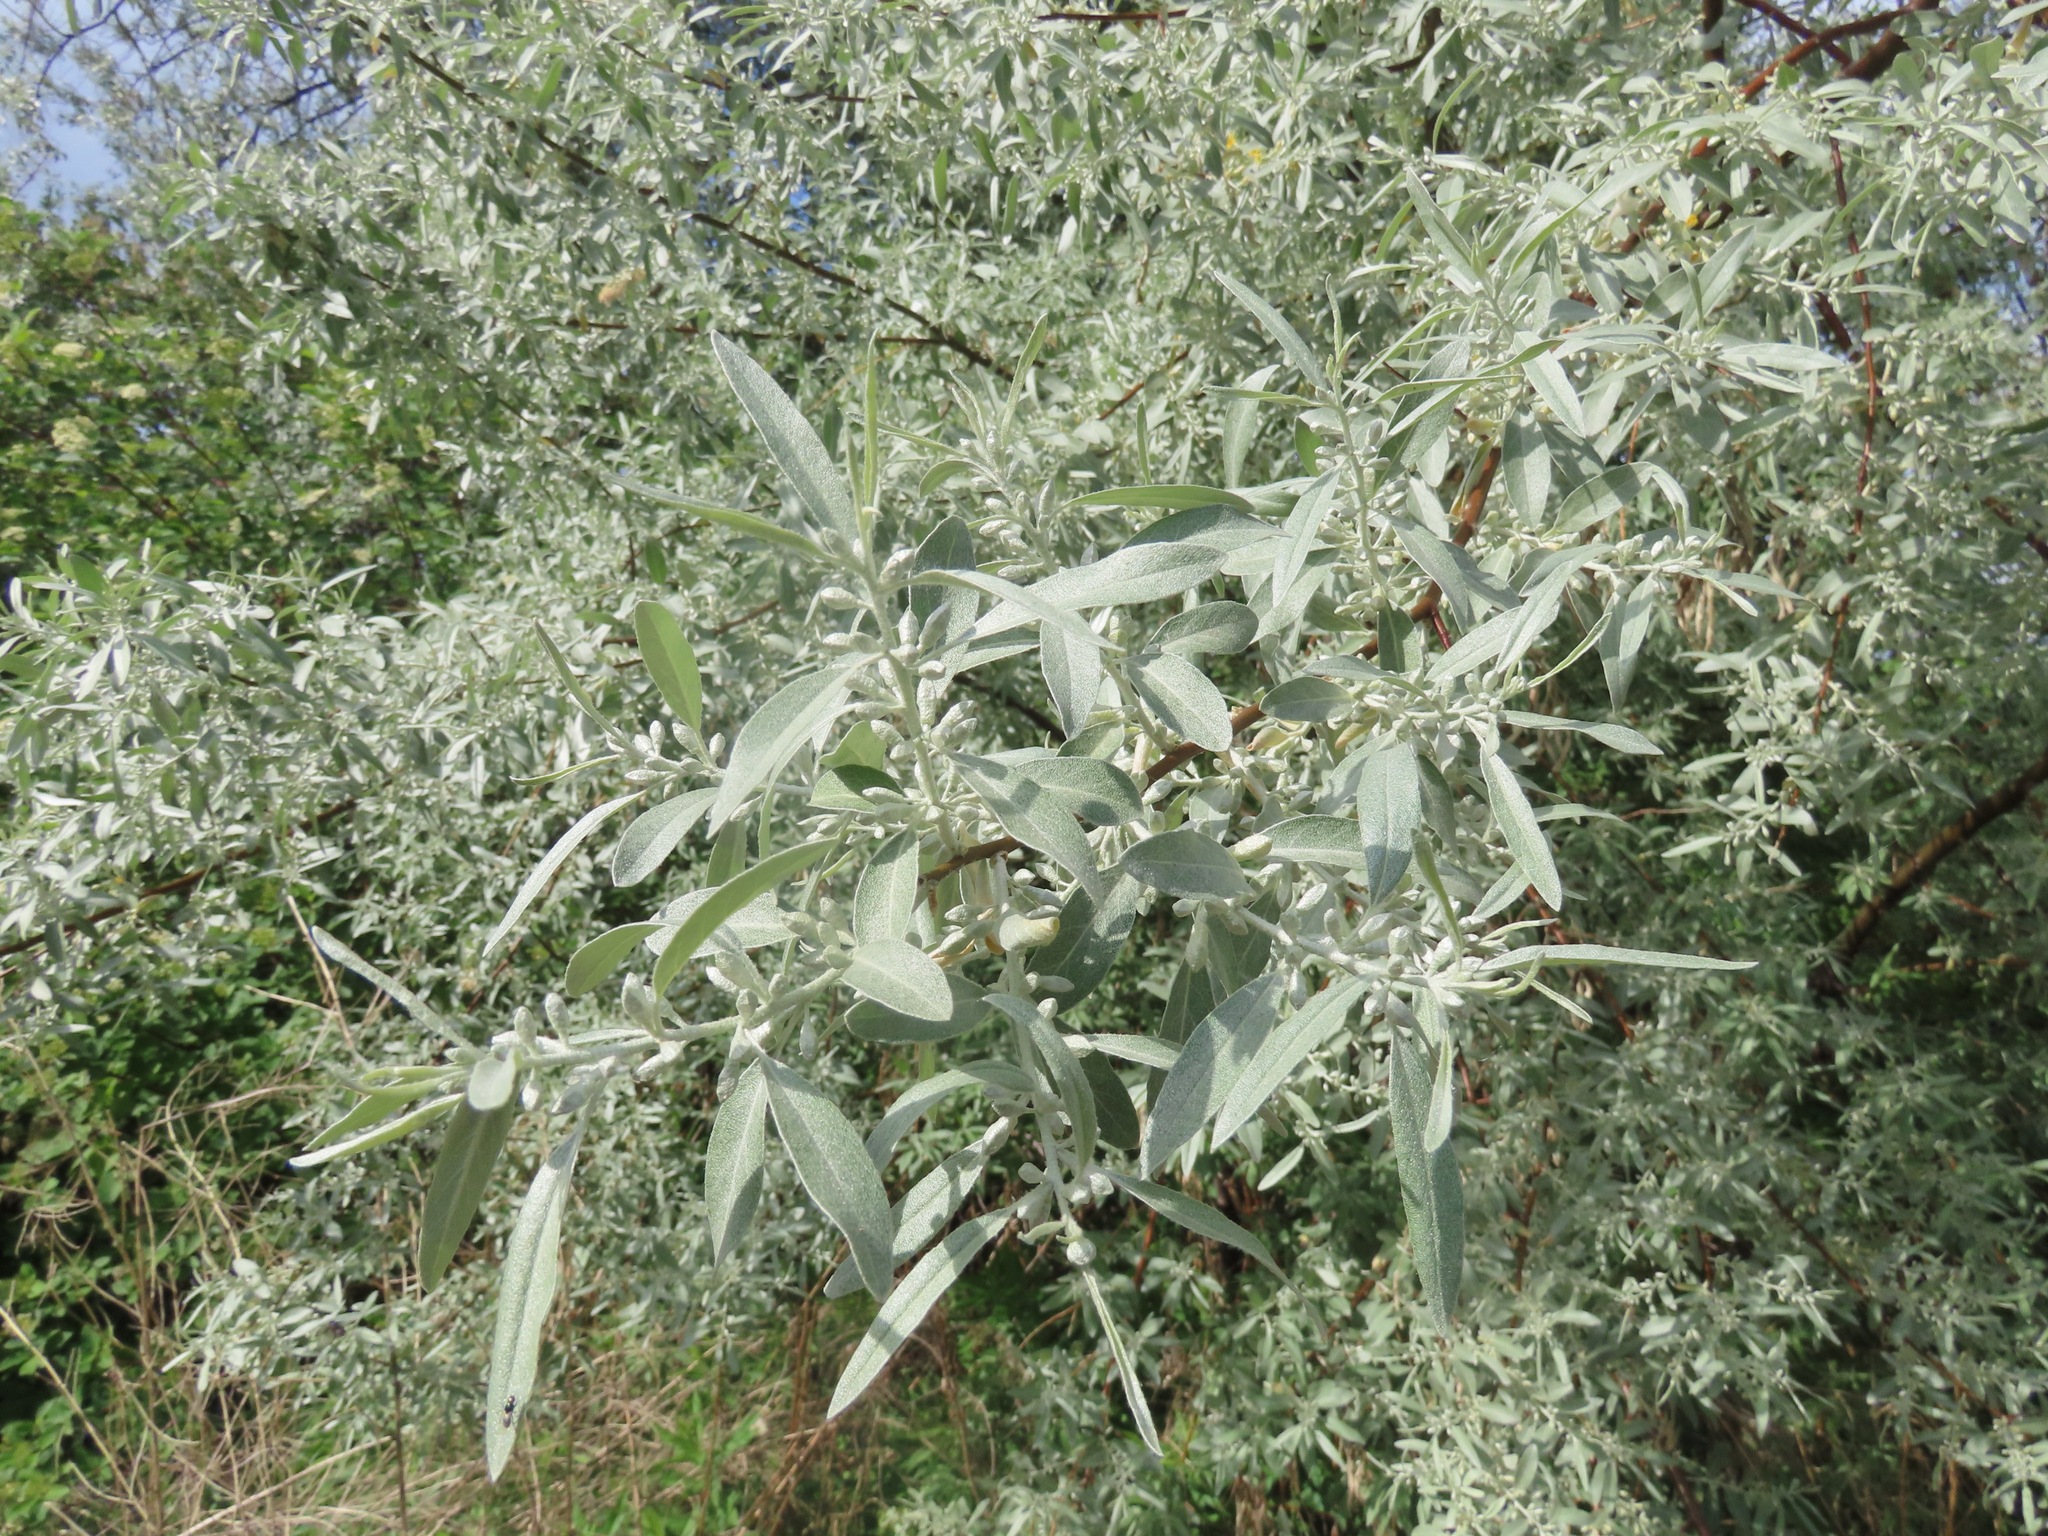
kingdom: Plantae
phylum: Tracheophyta
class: Magnoliopsida
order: Rosales
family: Elaeagnaceae
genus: Elaeagnus
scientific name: Elaeagnus angustifolia
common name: Russian olive
